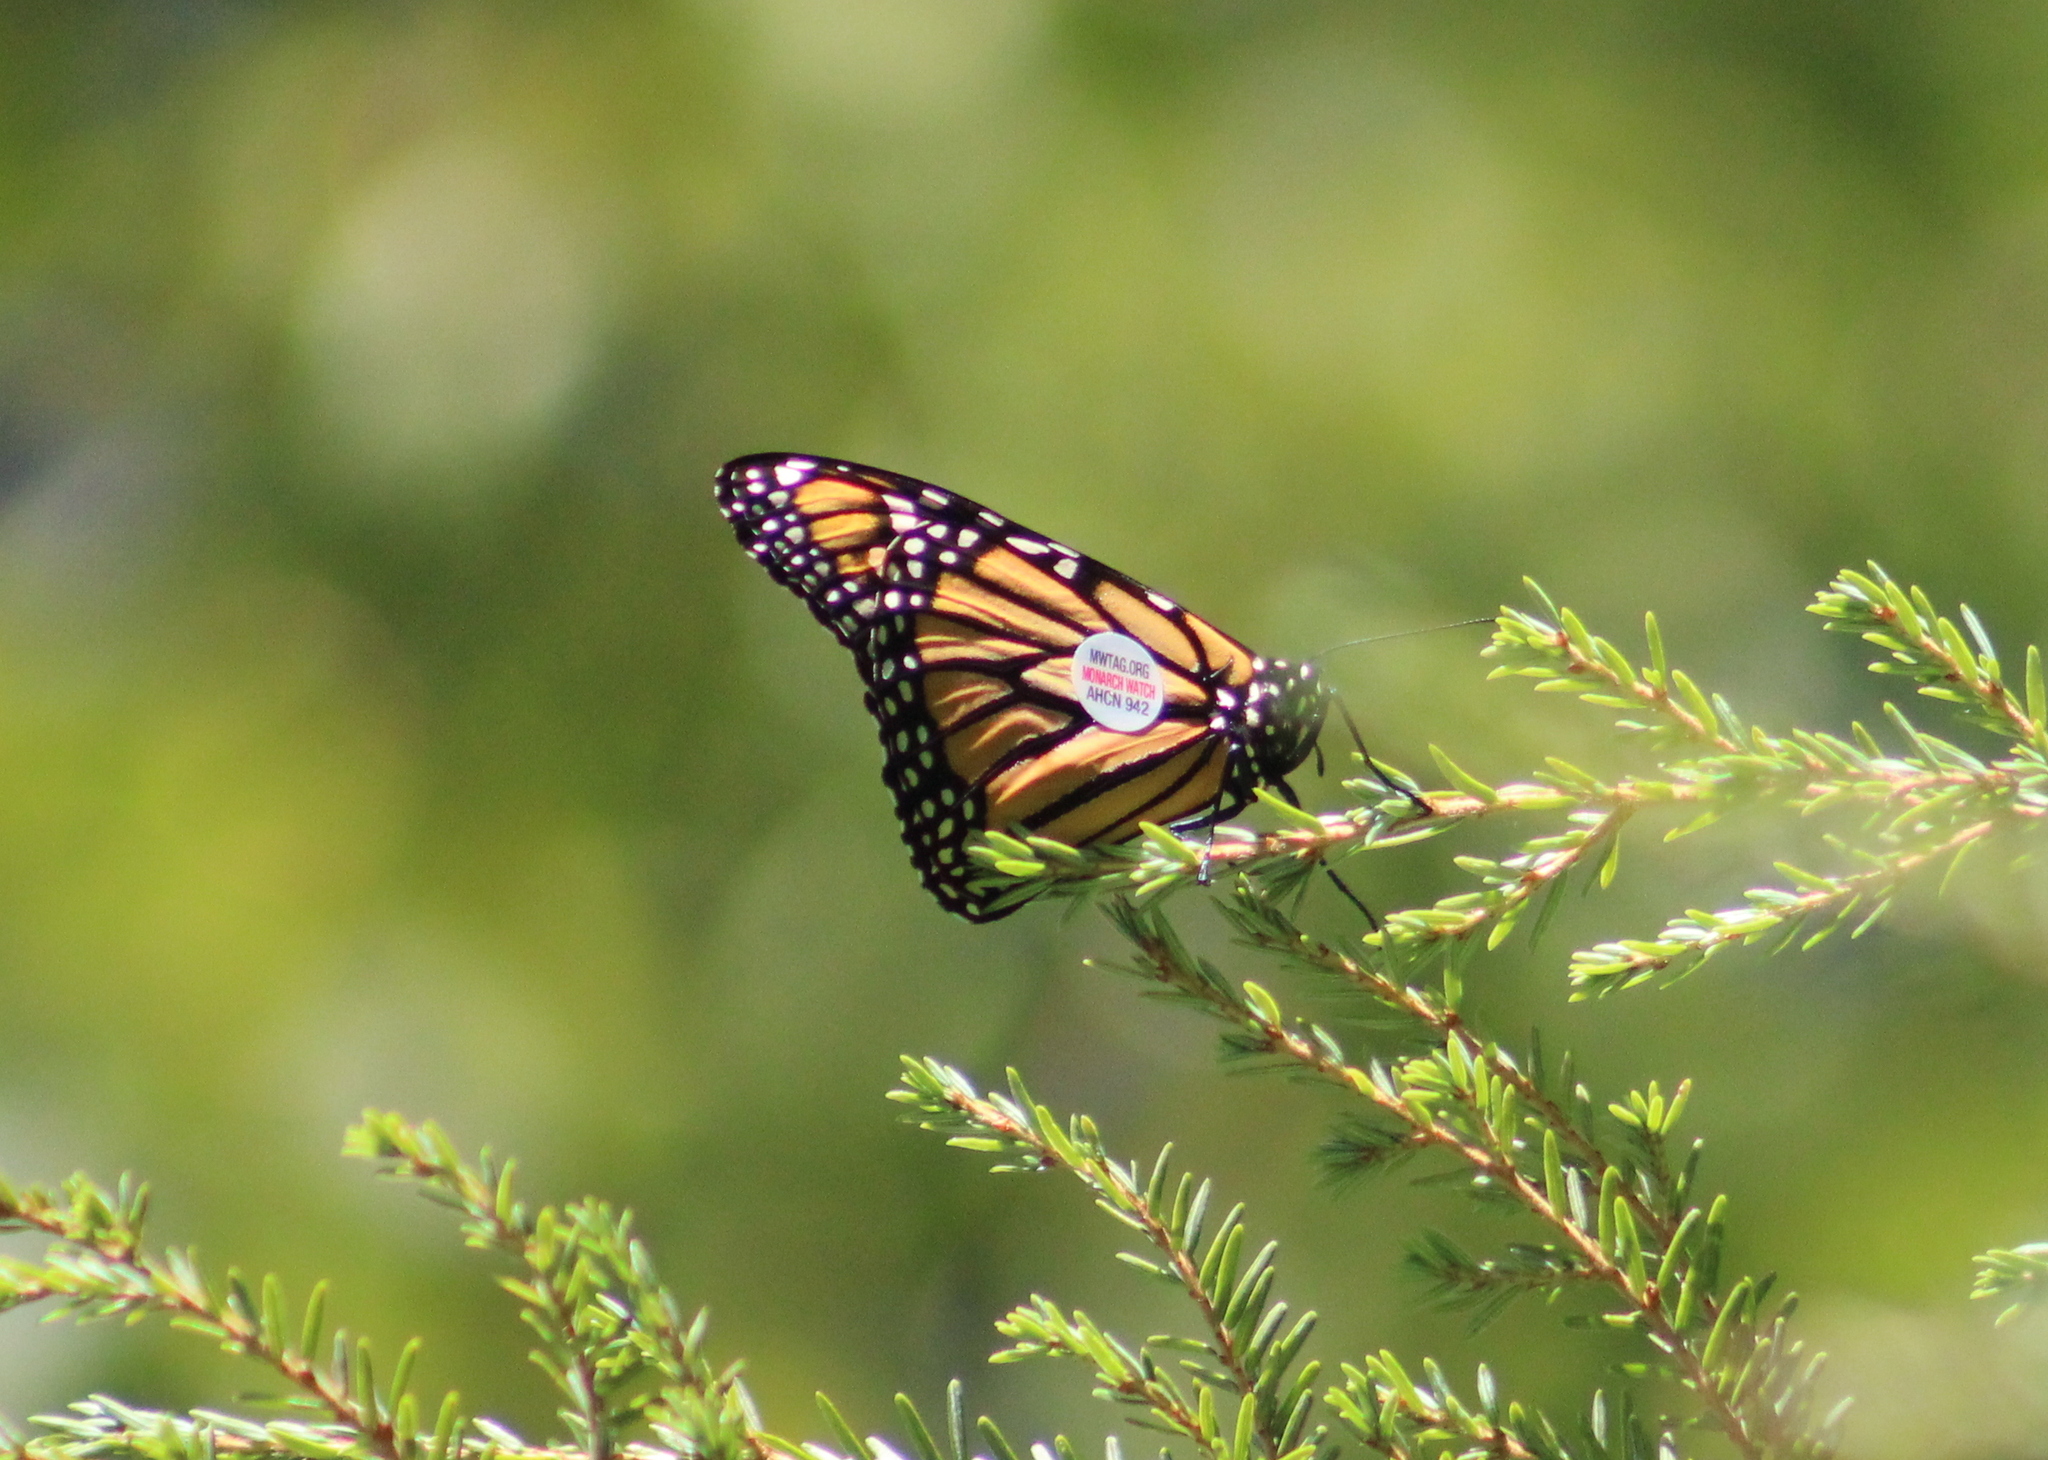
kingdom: Animalia
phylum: Arthropoda
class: Insecta
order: Lepidoptera
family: Nymphalidae
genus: Danaus
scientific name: Danaus plexippus
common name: Monarch
